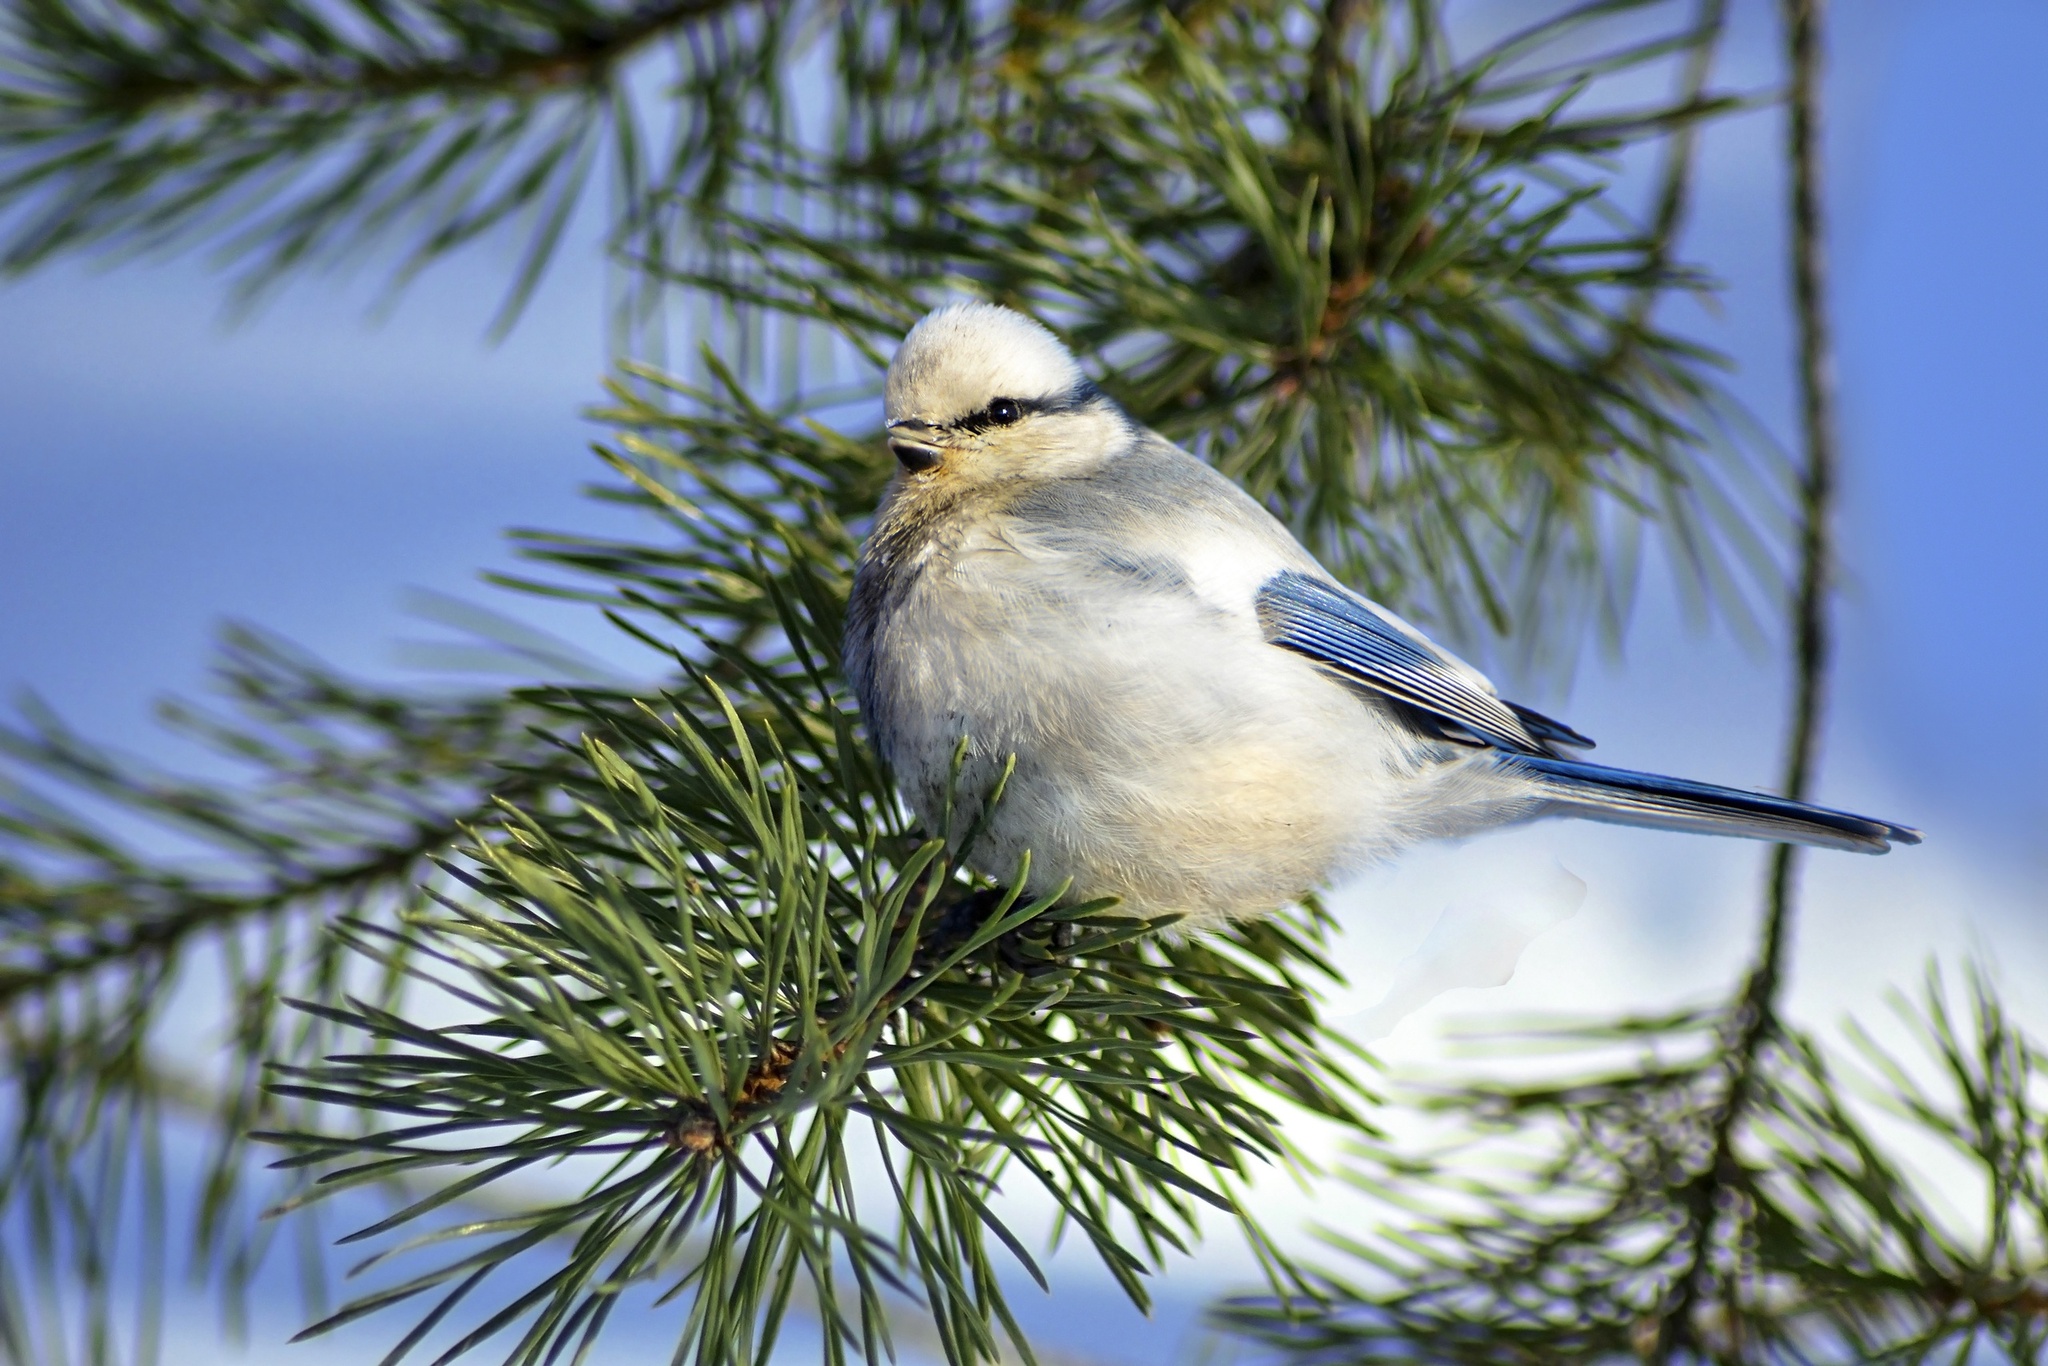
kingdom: Animalia
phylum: Chordata
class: Aves
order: Passeriformes
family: Paridae
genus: Cyanistes
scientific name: Cyanistes cyanus
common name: Azure tit
